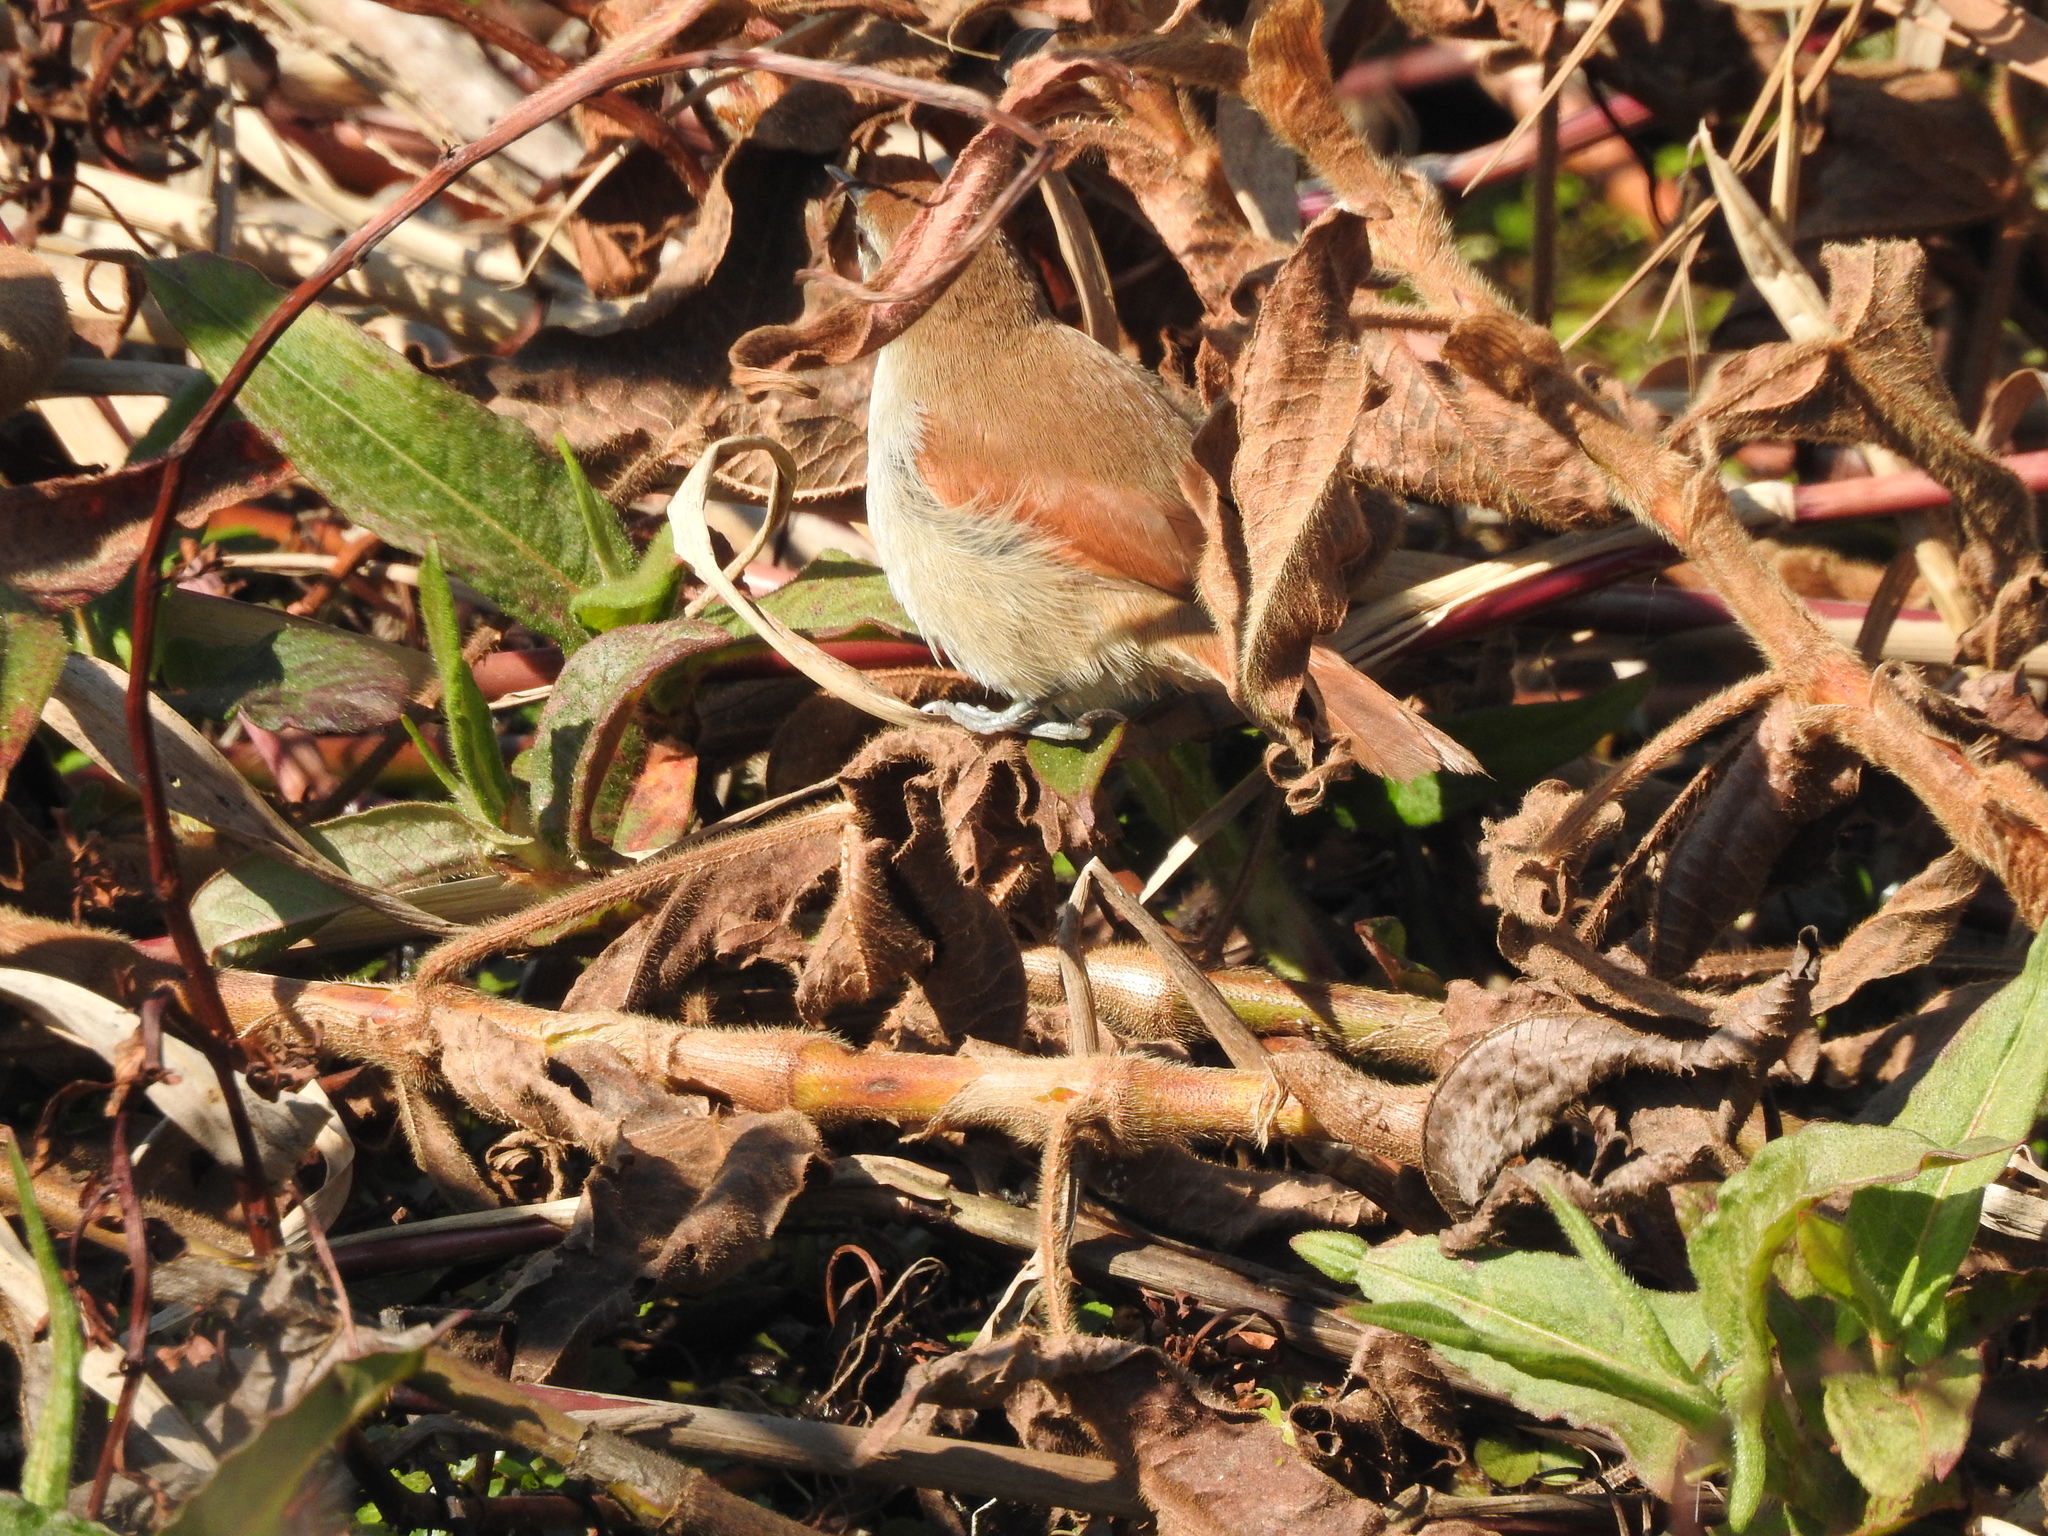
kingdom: Animalia
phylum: Chordata
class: Aves
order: Passeriformes
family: Furnariidae
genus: Certhiaxis
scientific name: Certhiaxis cinnamomeus
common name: Yellow-chinned spinetail
